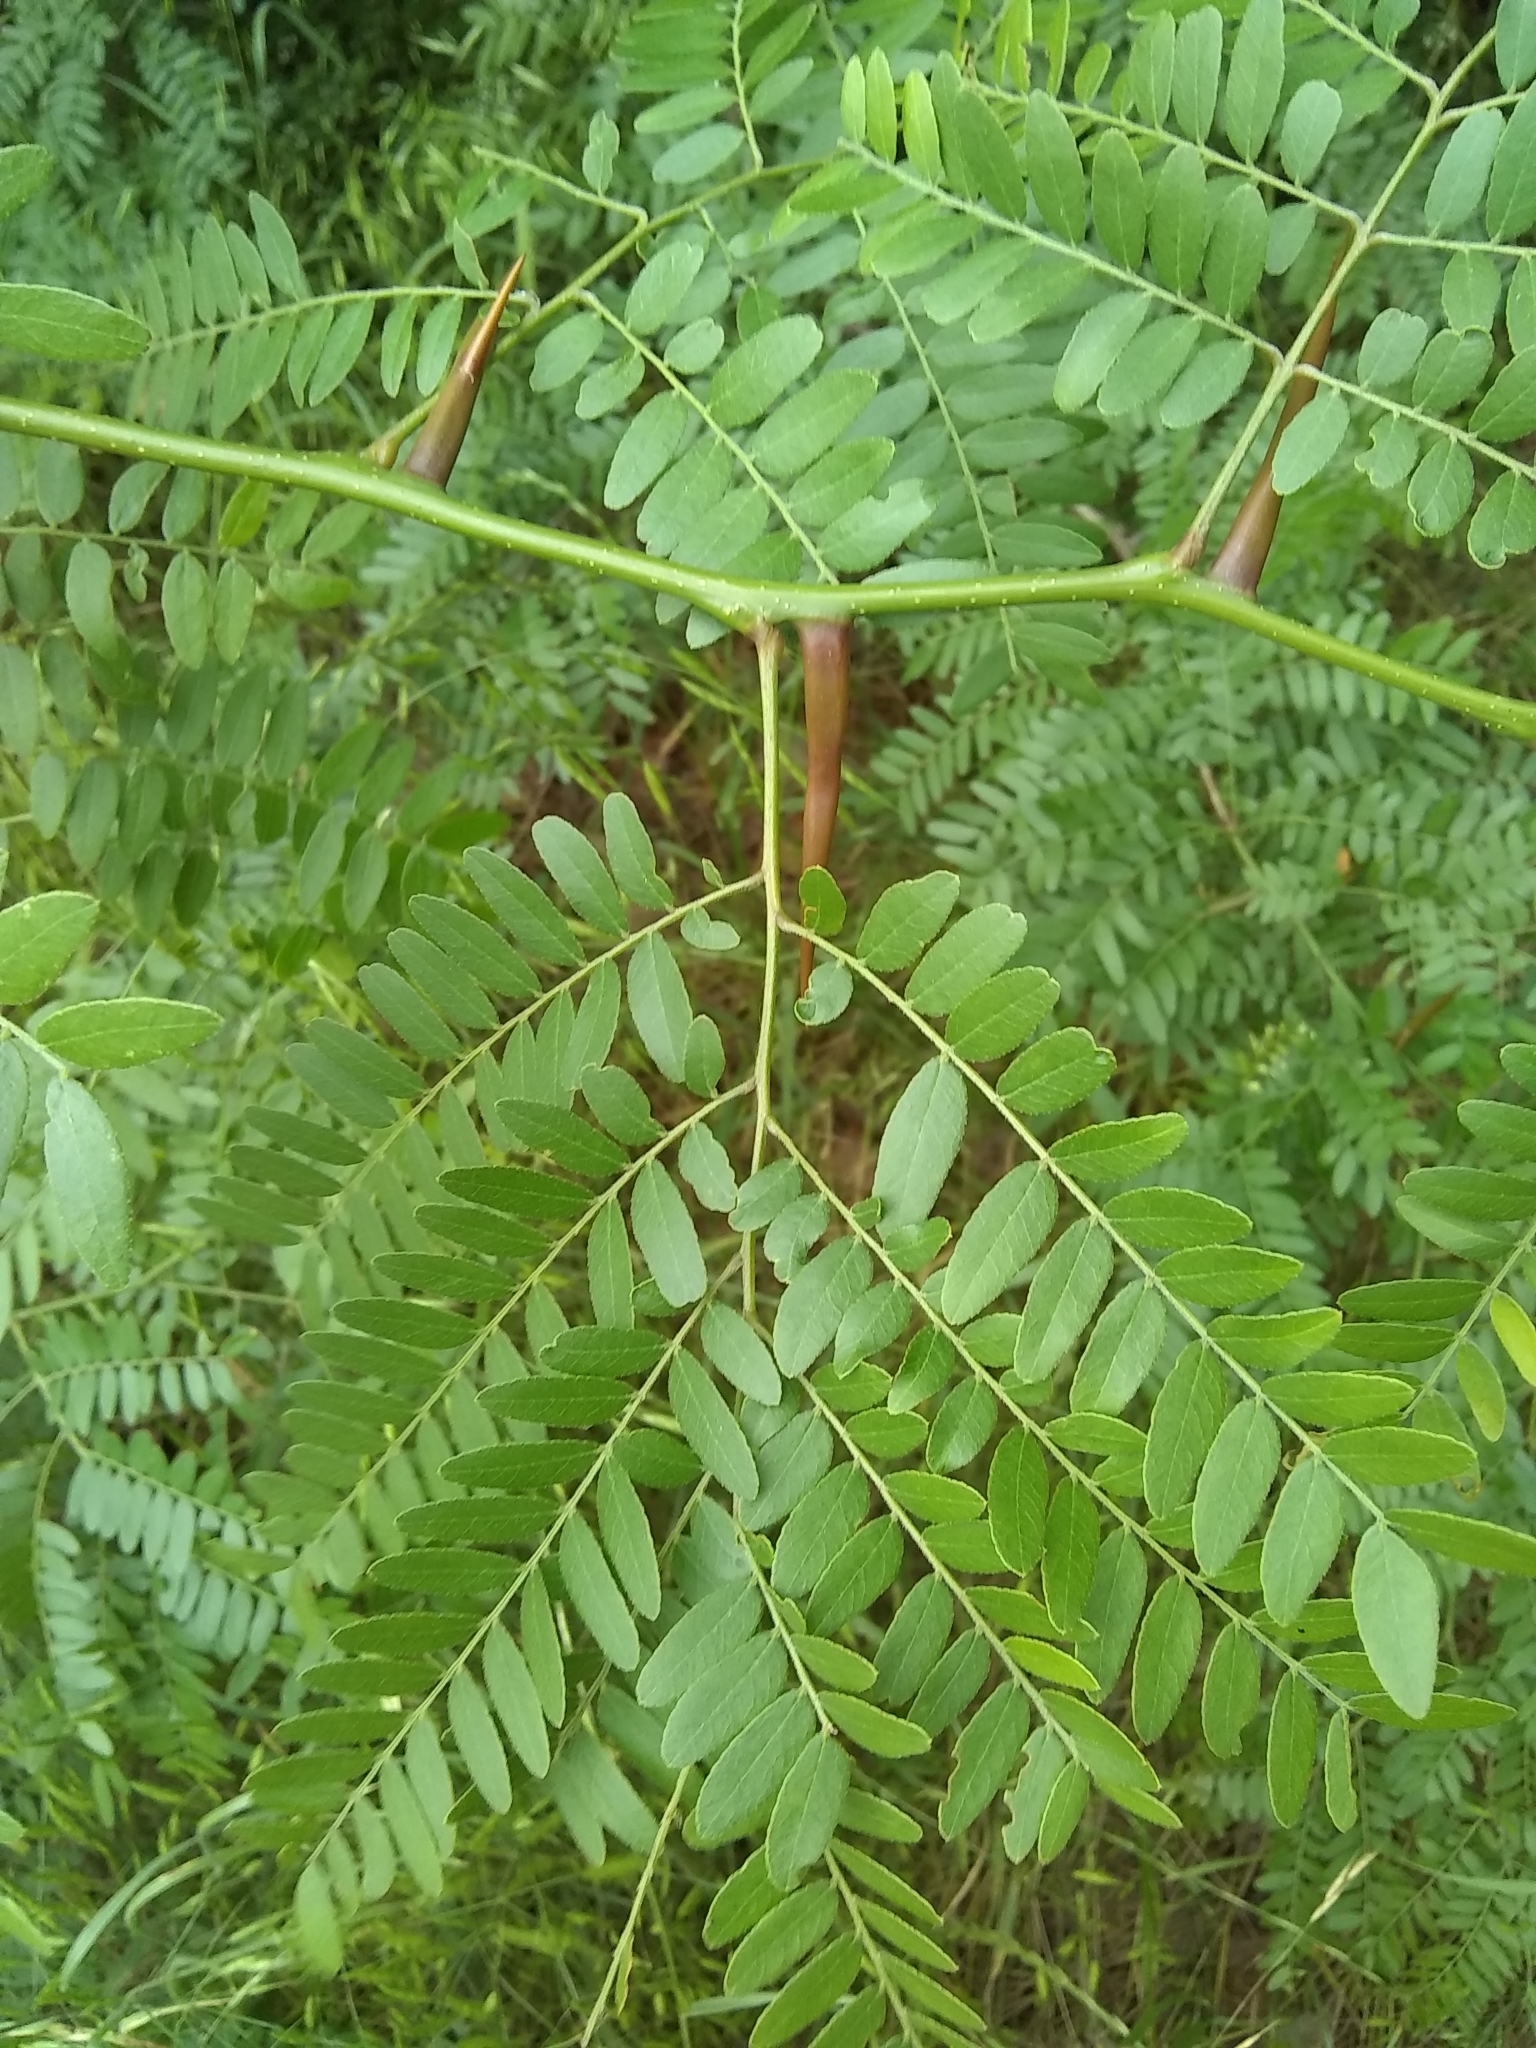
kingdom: Plantae
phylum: Tracheophyta
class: Magnoliopsida
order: Fabales
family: Fabaceae
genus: Gleditsia
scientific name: Gleditsia triacanthos
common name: Common honeylocust
